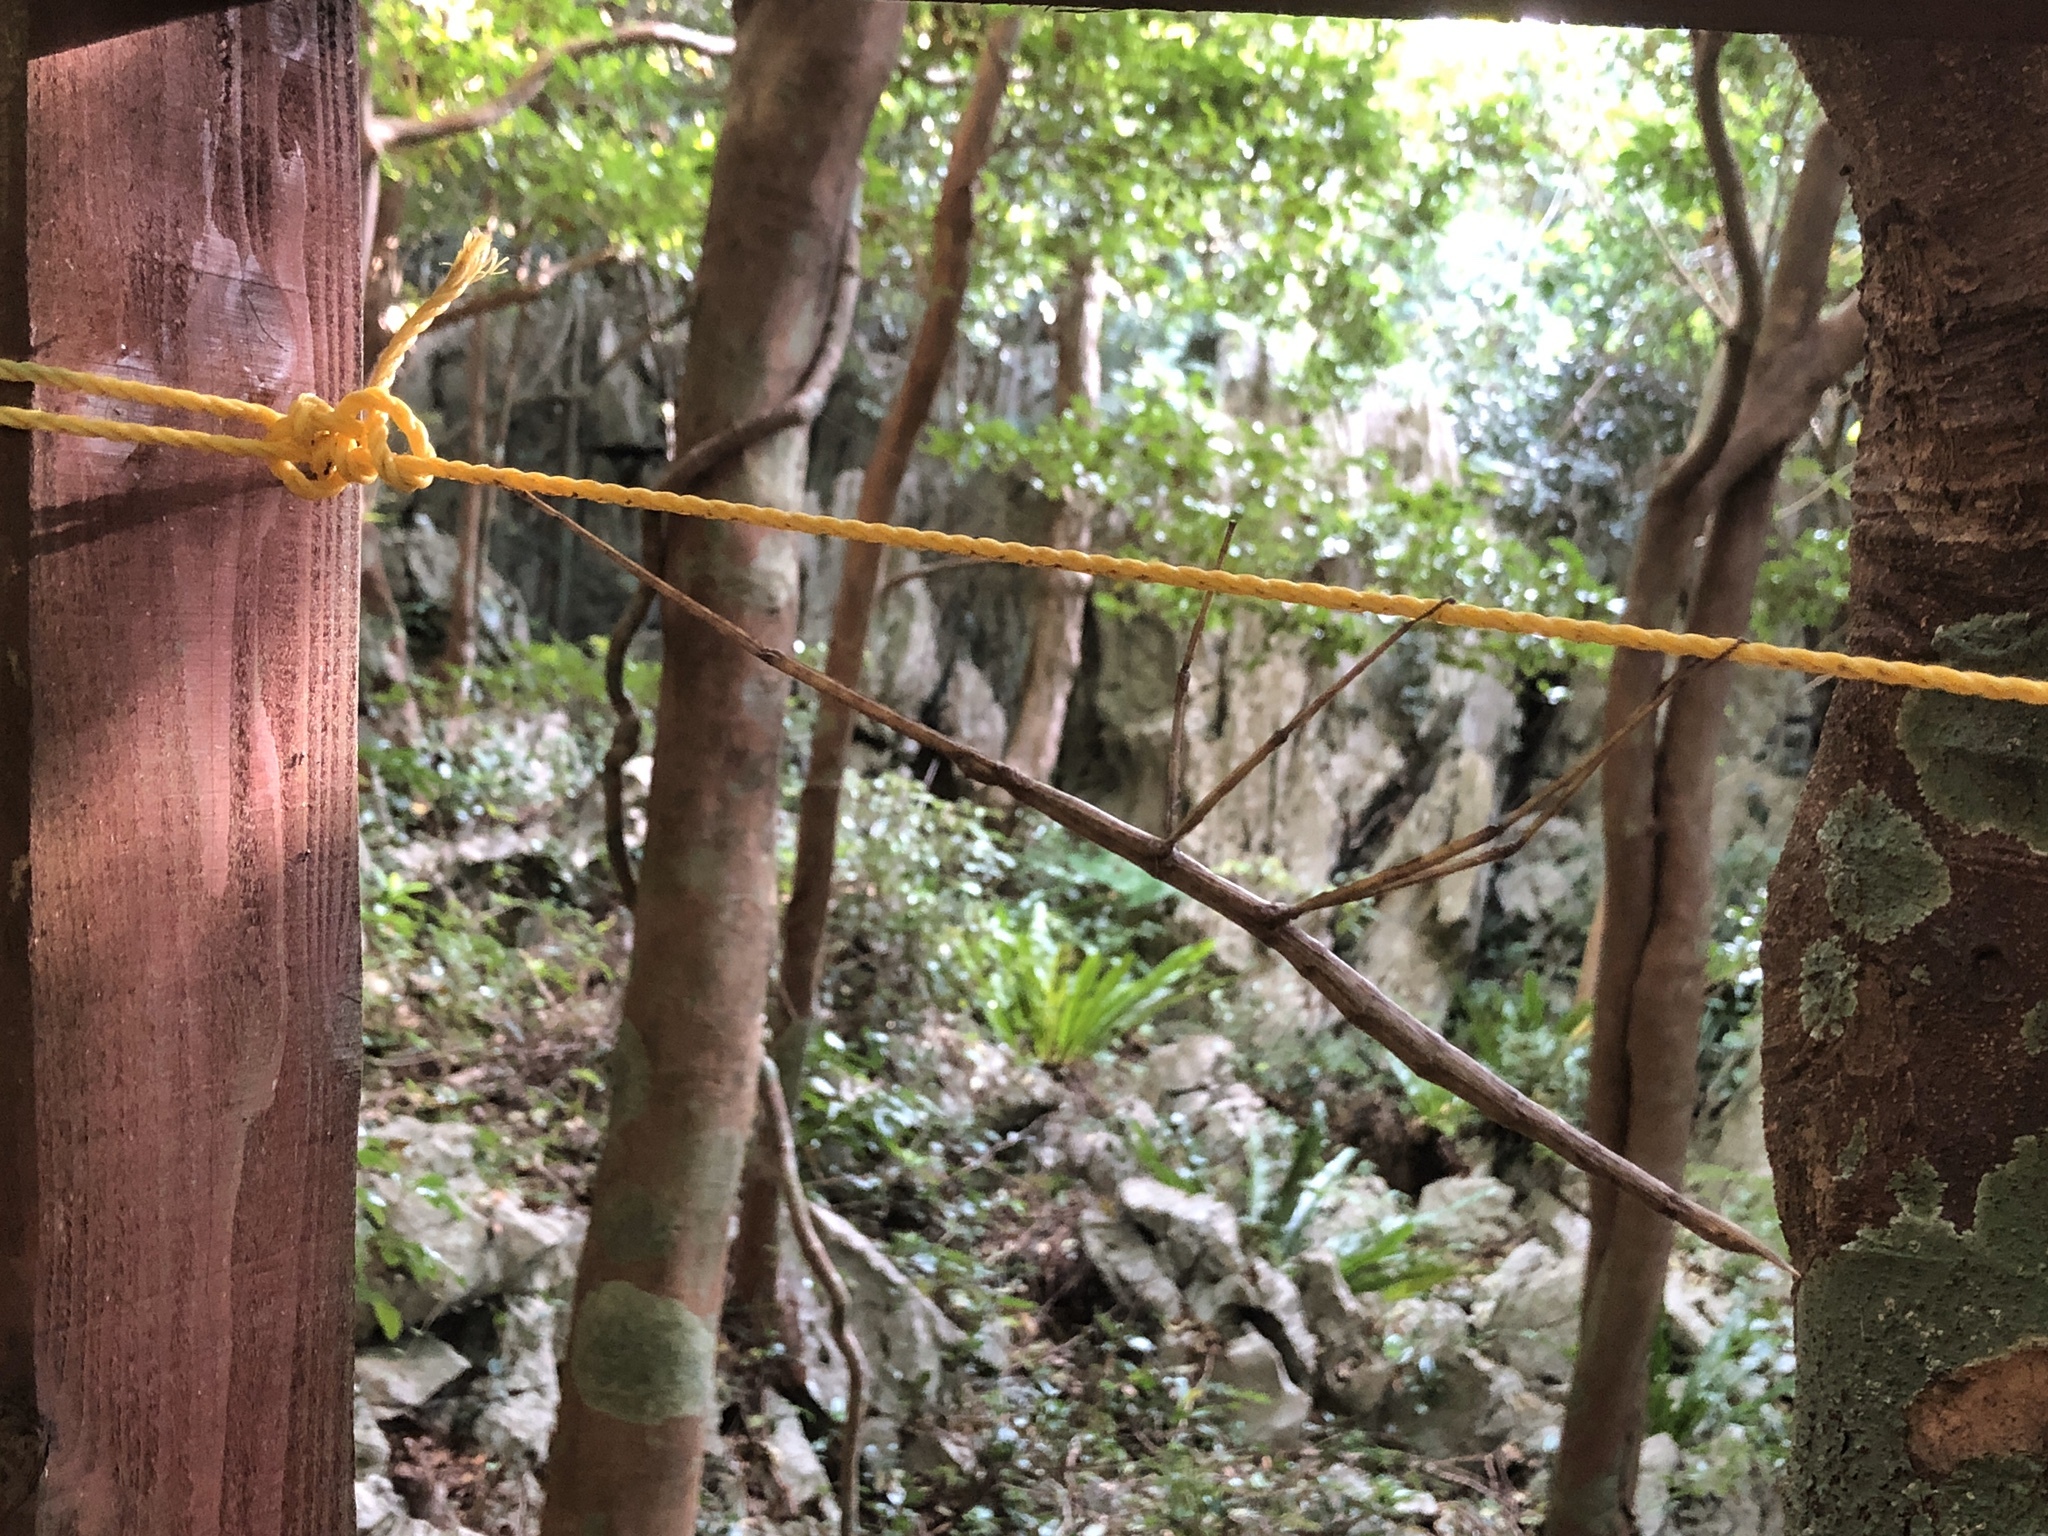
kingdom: Animalia
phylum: Arthropoda
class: Insecta
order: Phasmida
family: Phasmatidae
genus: Entoria
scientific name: Entoria miyakoensis
